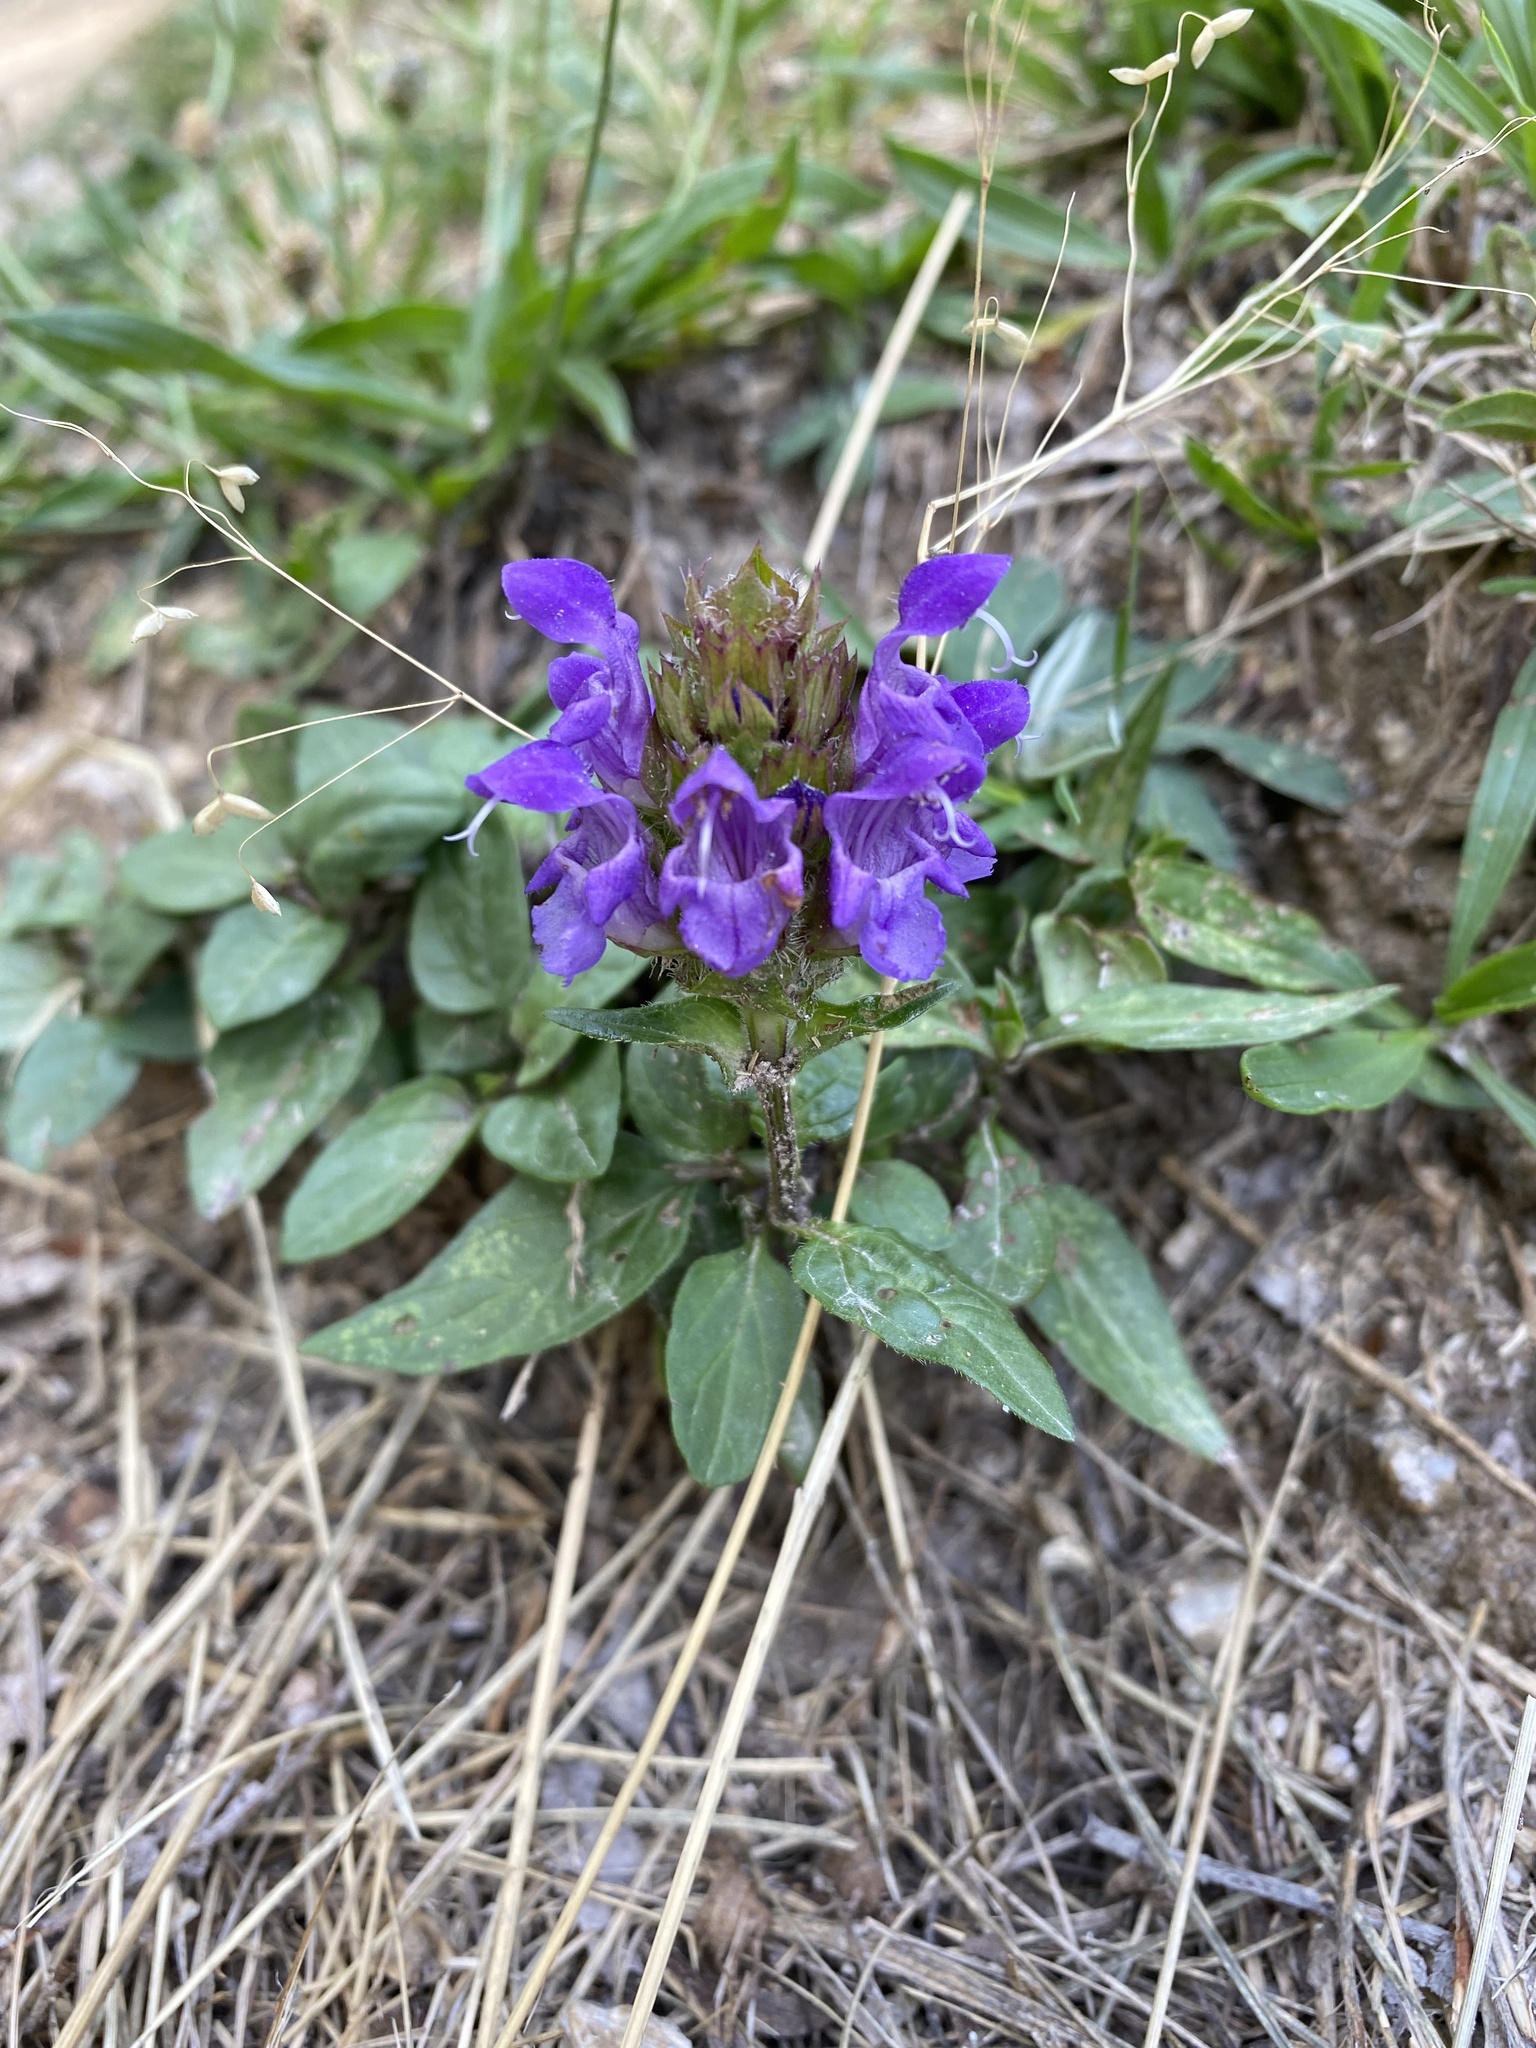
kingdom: Plantae
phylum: Tracheophyta
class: Magnoliopsida
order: Lamiales
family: Lamiaceae
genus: Prunella
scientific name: Prunella grandiflora
